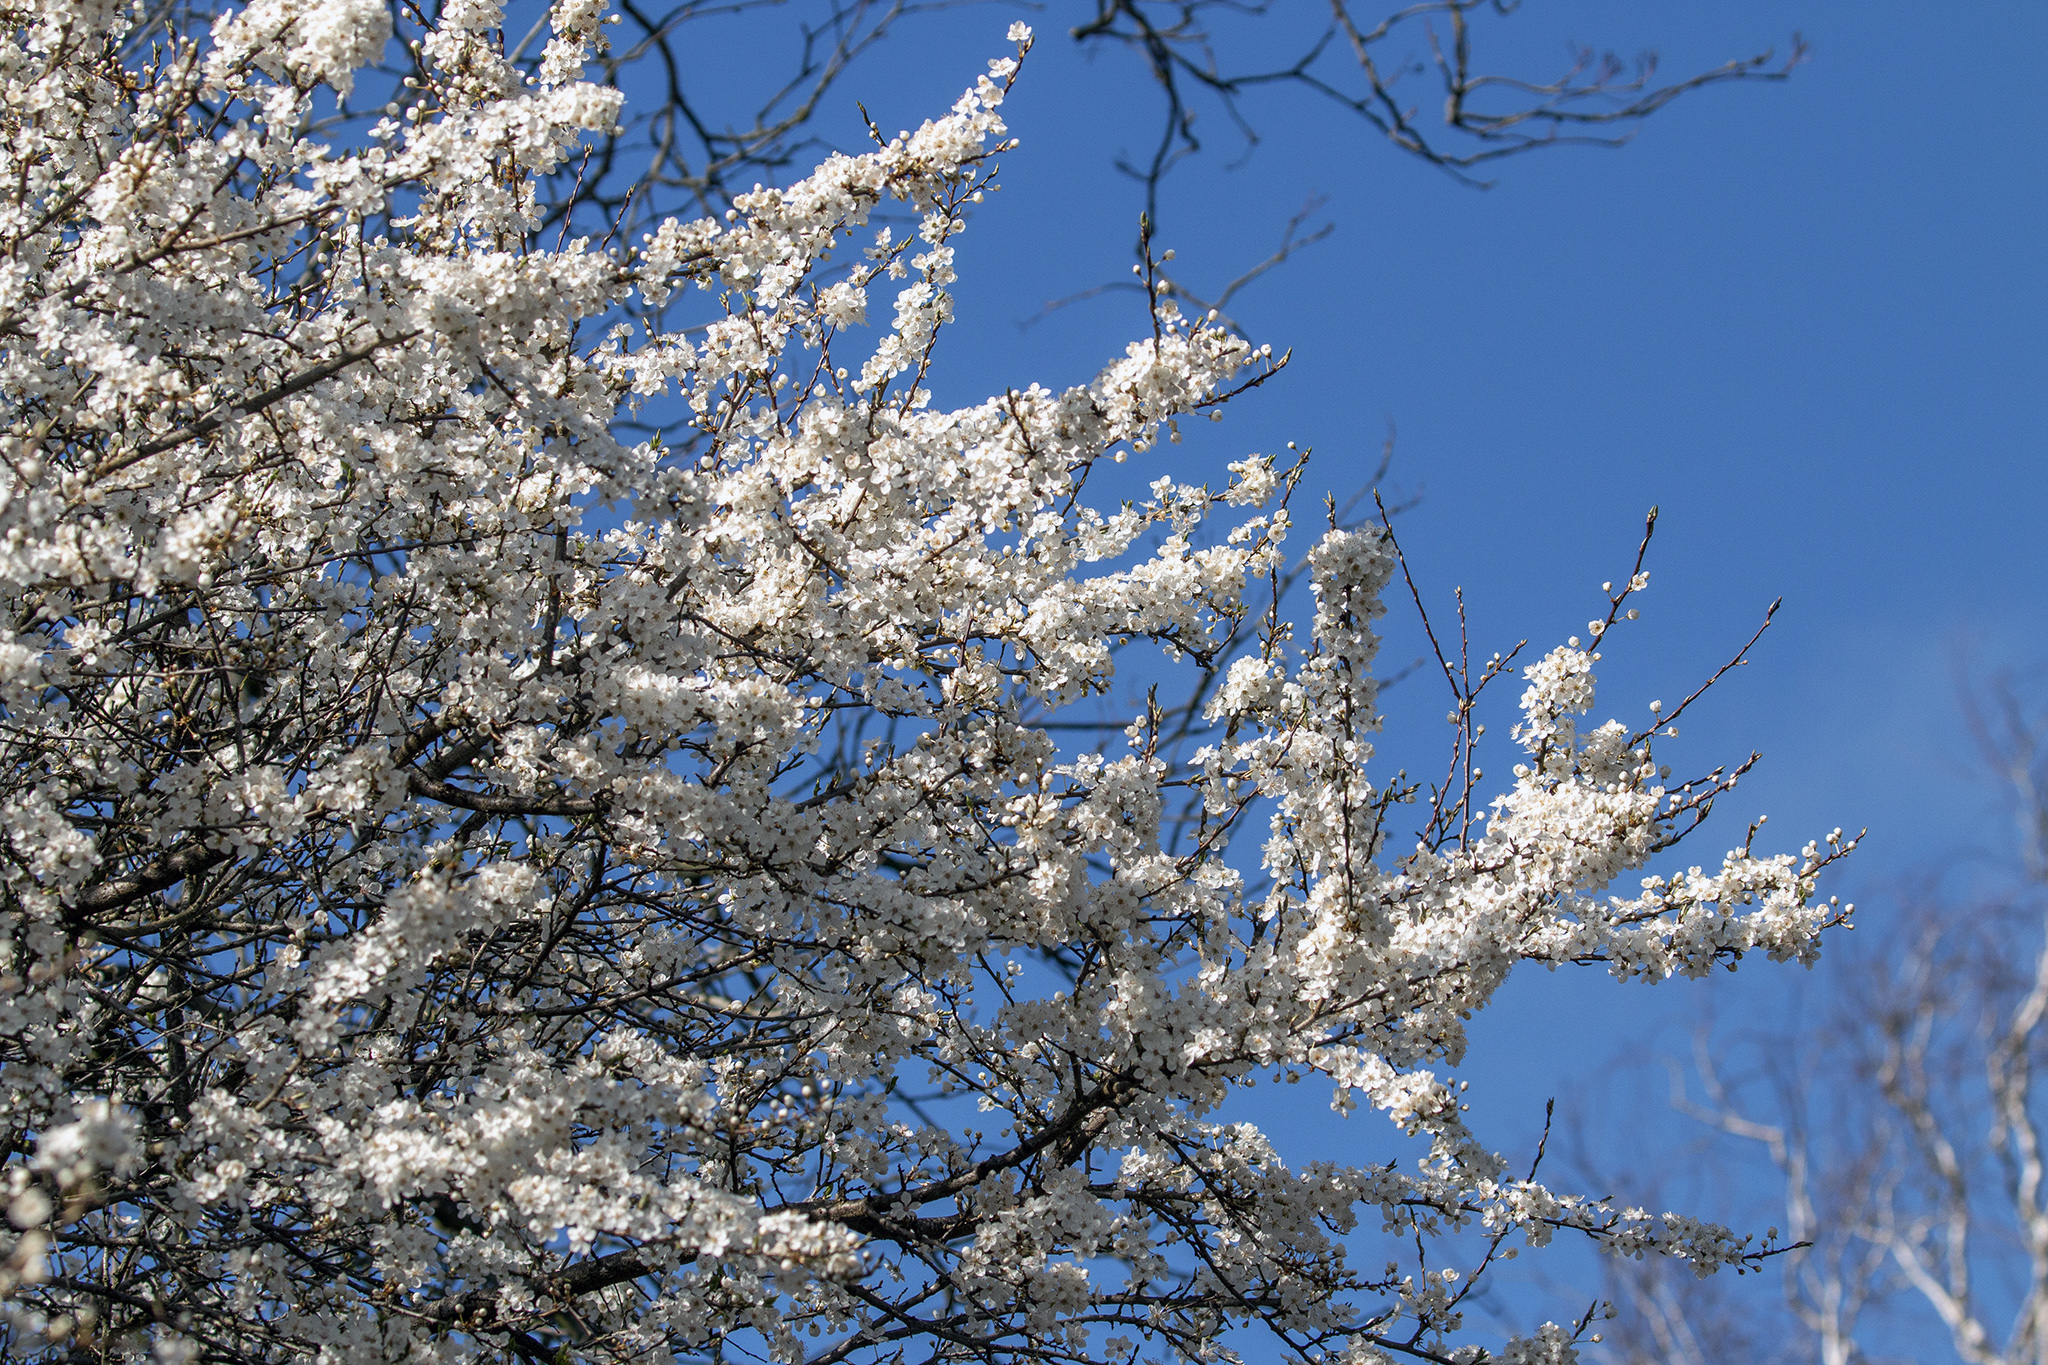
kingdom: Plantae
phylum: Tracheophyta
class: Magnoliopsida
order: Rosales
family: Rosaceae
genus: Prunus
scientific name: Prunus cerasifera
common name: Cherry plum
